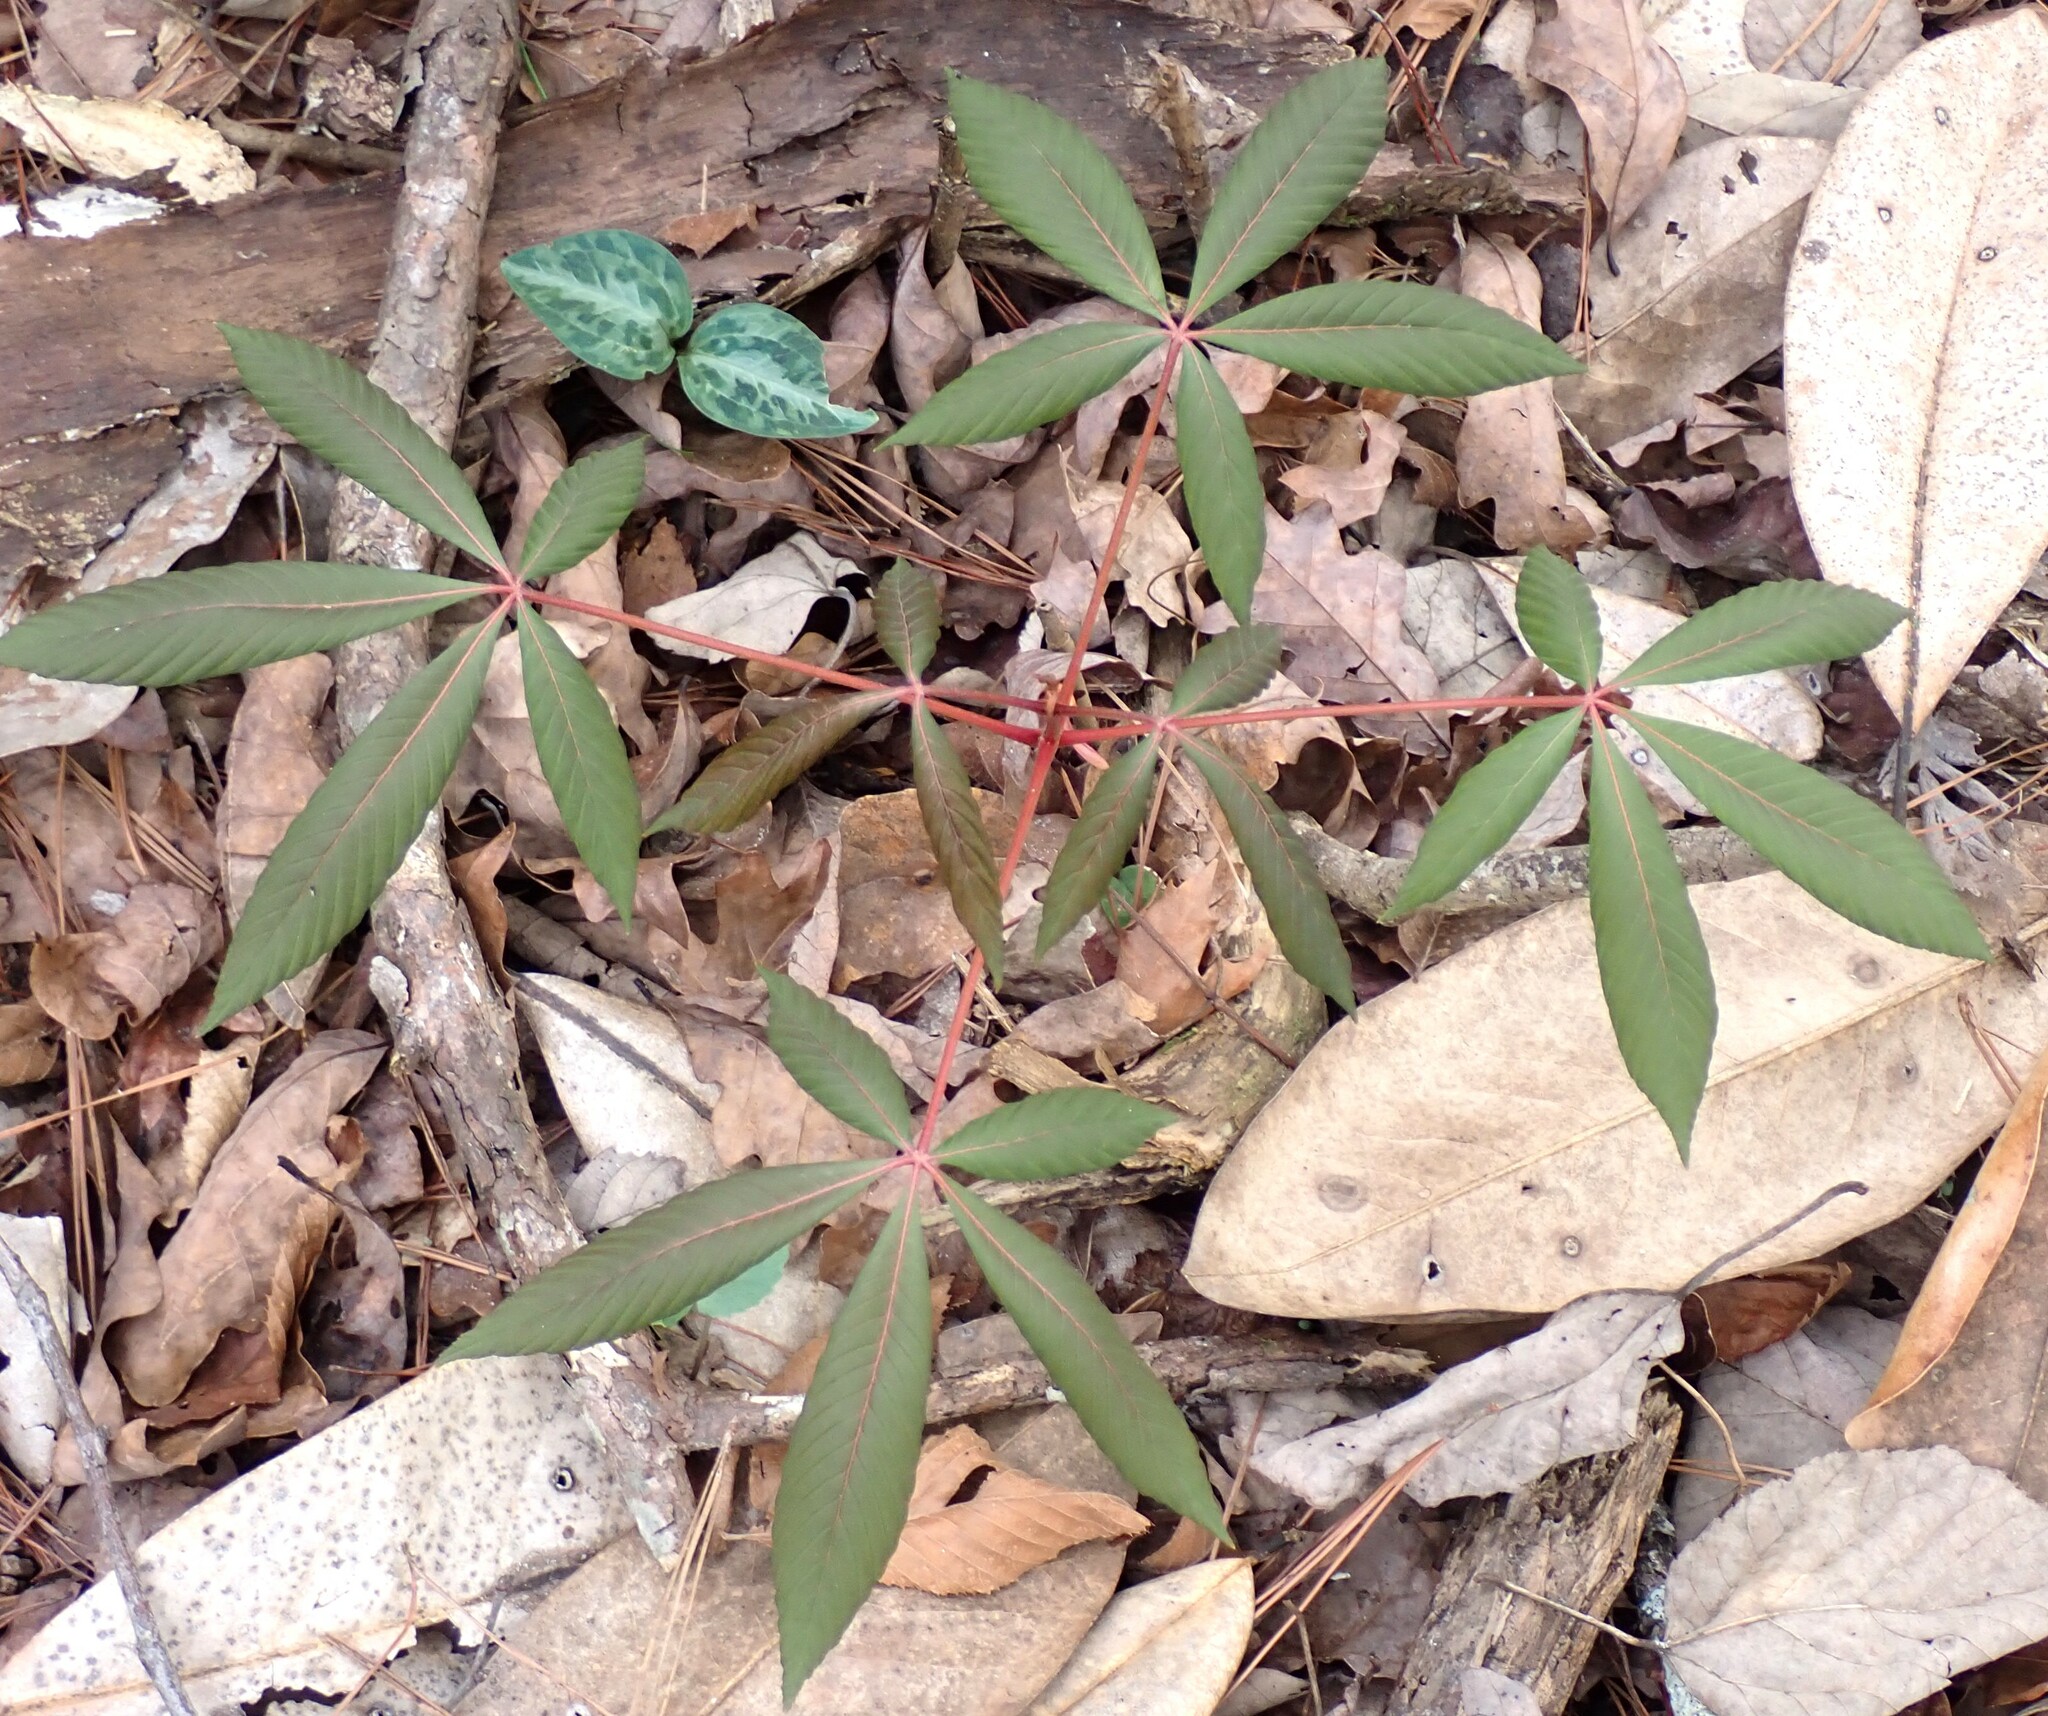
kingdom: Plantae
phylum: Tracheophyta
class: Magnoliopsida
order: Sapindales
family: Sapindaceae
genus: Aesculus
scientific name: Aesculus pavia
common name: Red buckeye
